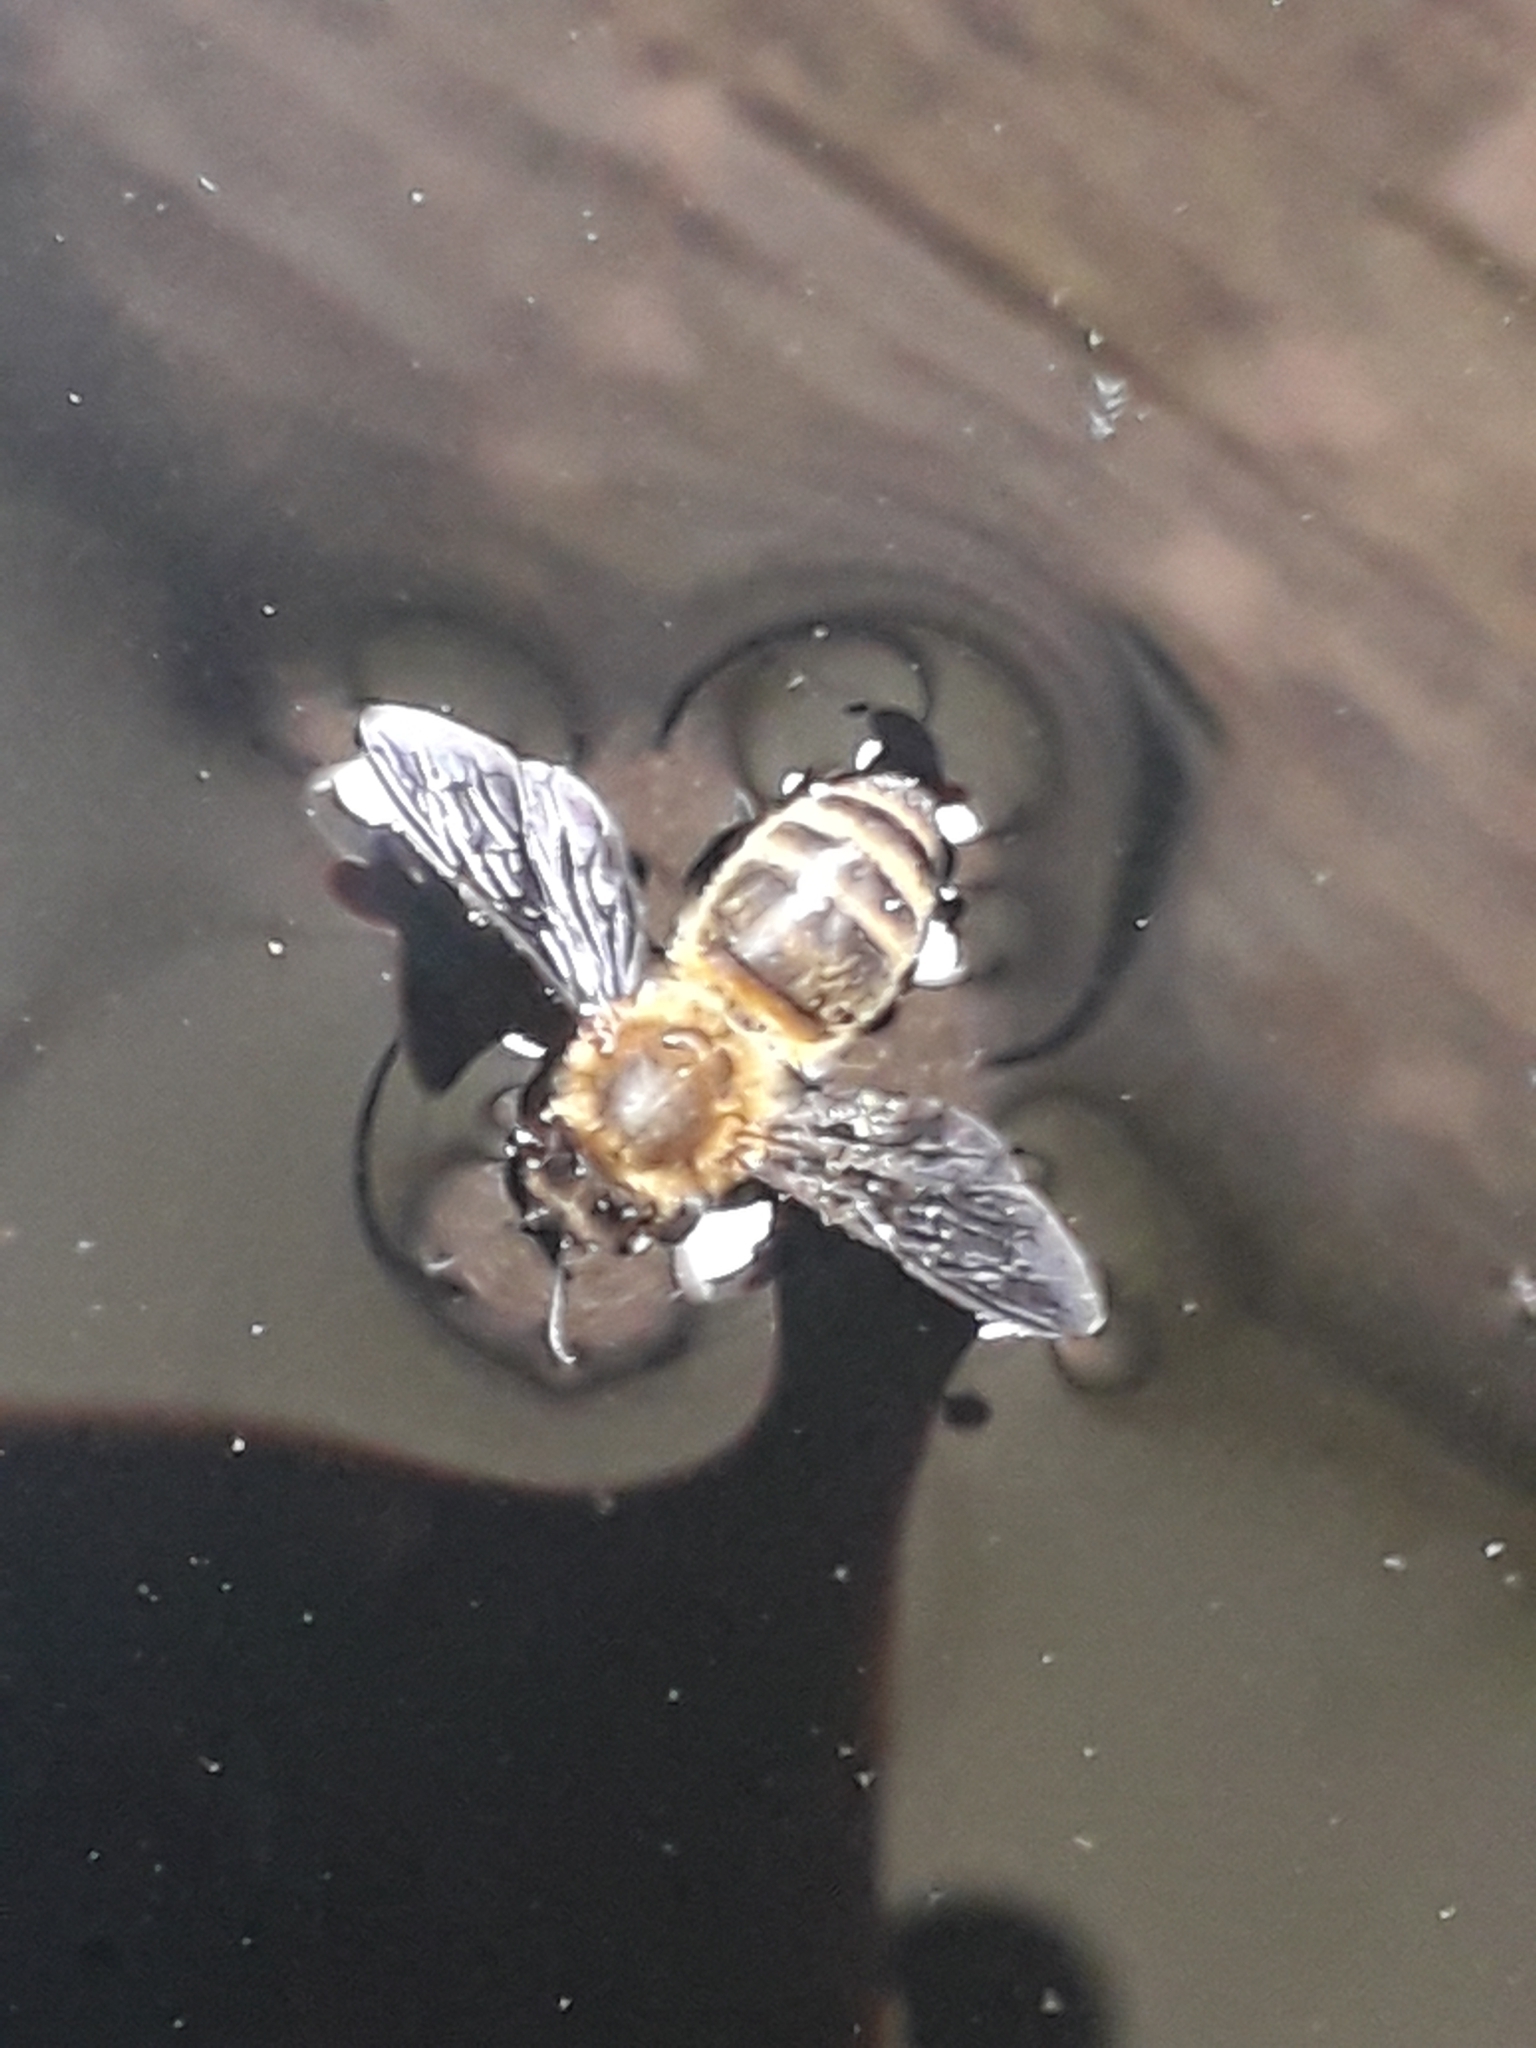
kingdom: Animalia
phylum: Arthropoda
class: Insecta
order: Hymenoptera
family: Apidae
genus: Apis
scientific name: Apis mellifera
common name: Honey bee
